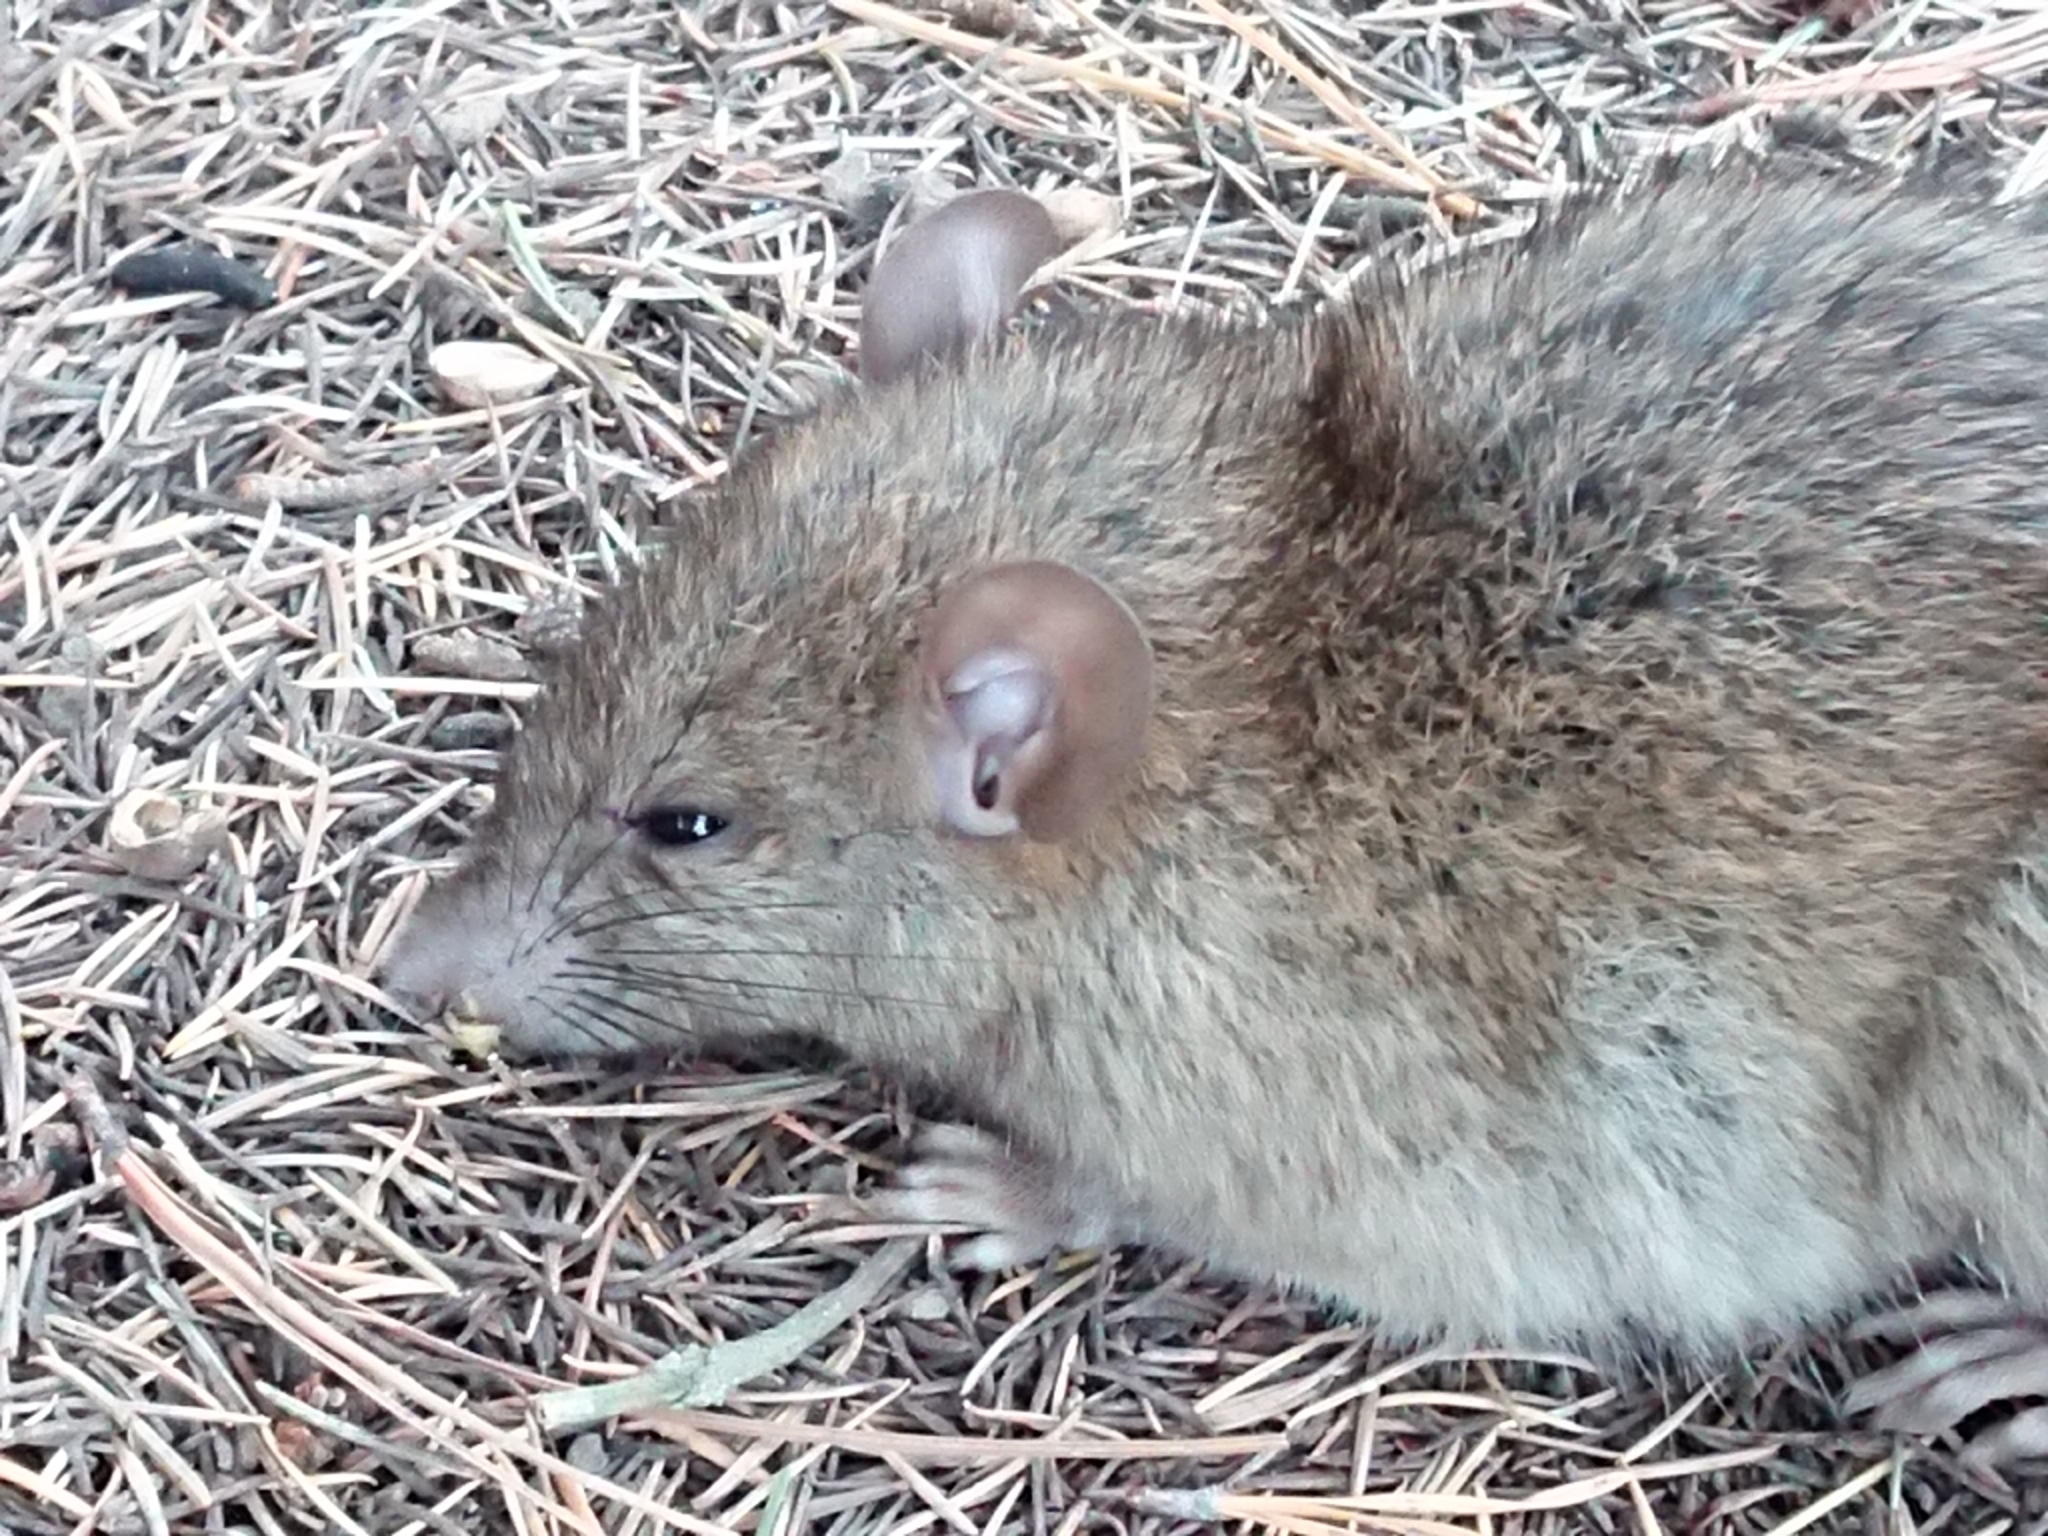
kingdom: Animalia
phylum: Chordata
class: Mammalia
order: Rodentia
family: Muridae
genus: Rattus
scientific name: Rattus rattus
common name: Black rat
